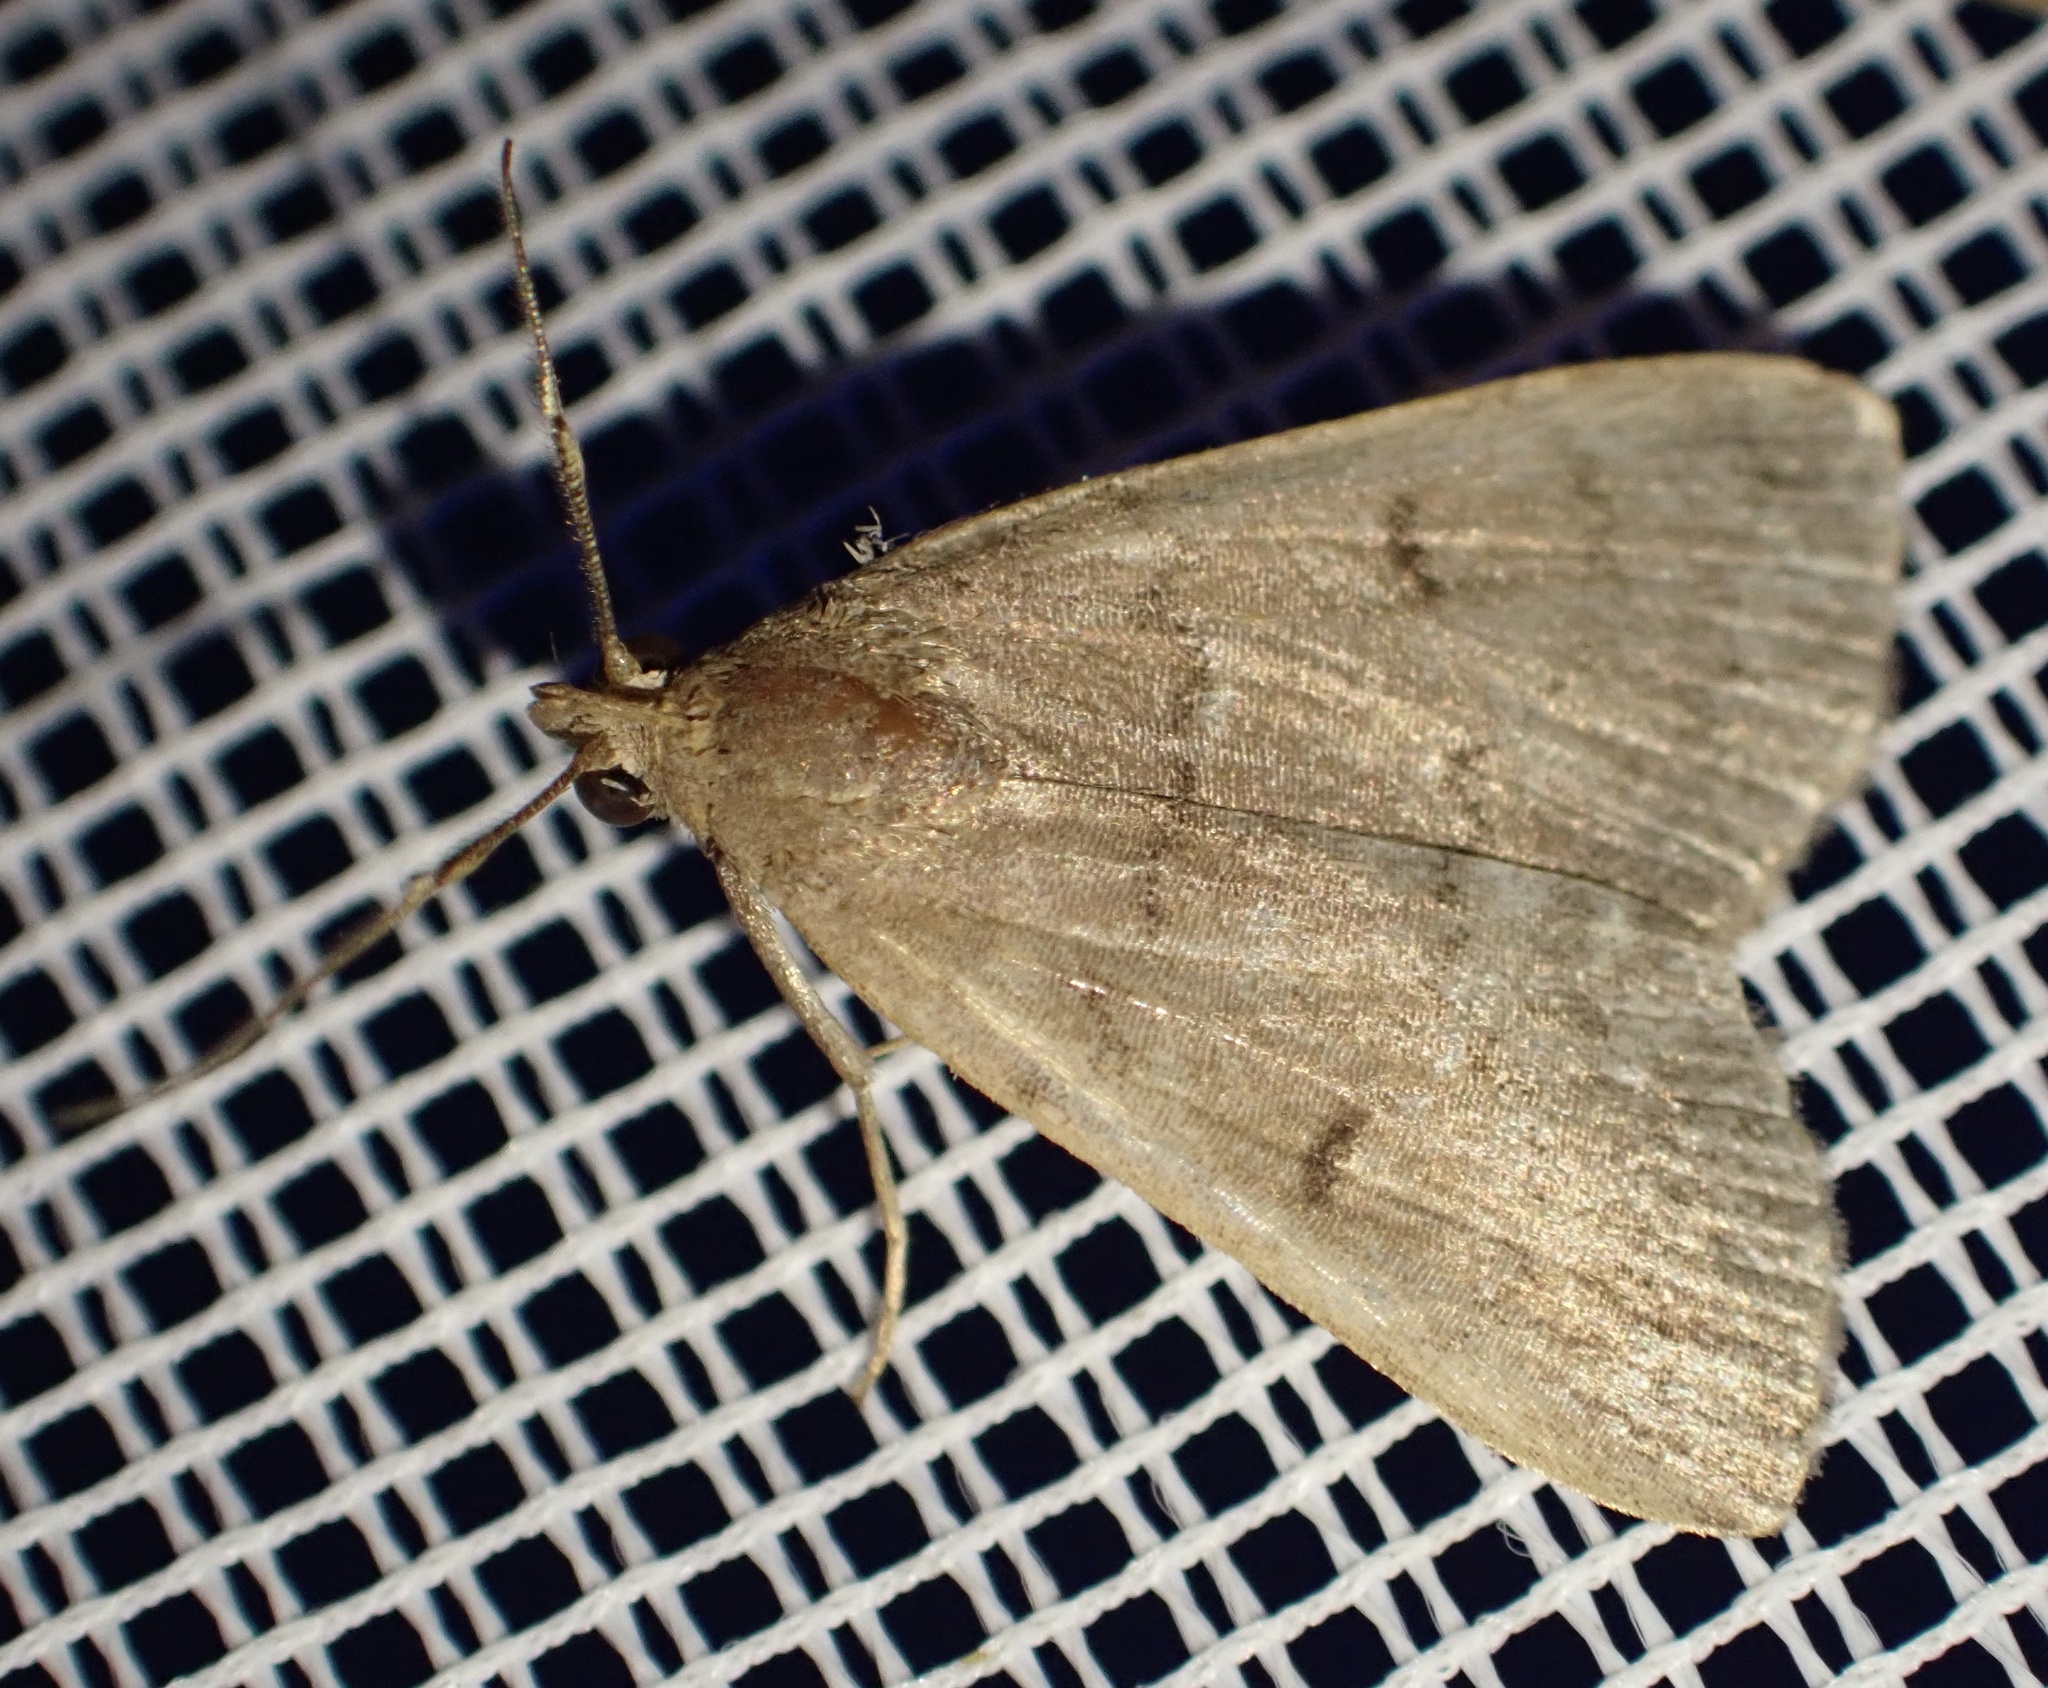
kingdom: Animalia
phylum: Arthropoda
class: Insecta
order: Lepidoptera
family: Erebidae
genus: Nodaria
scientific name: Nodaria nodosalis
